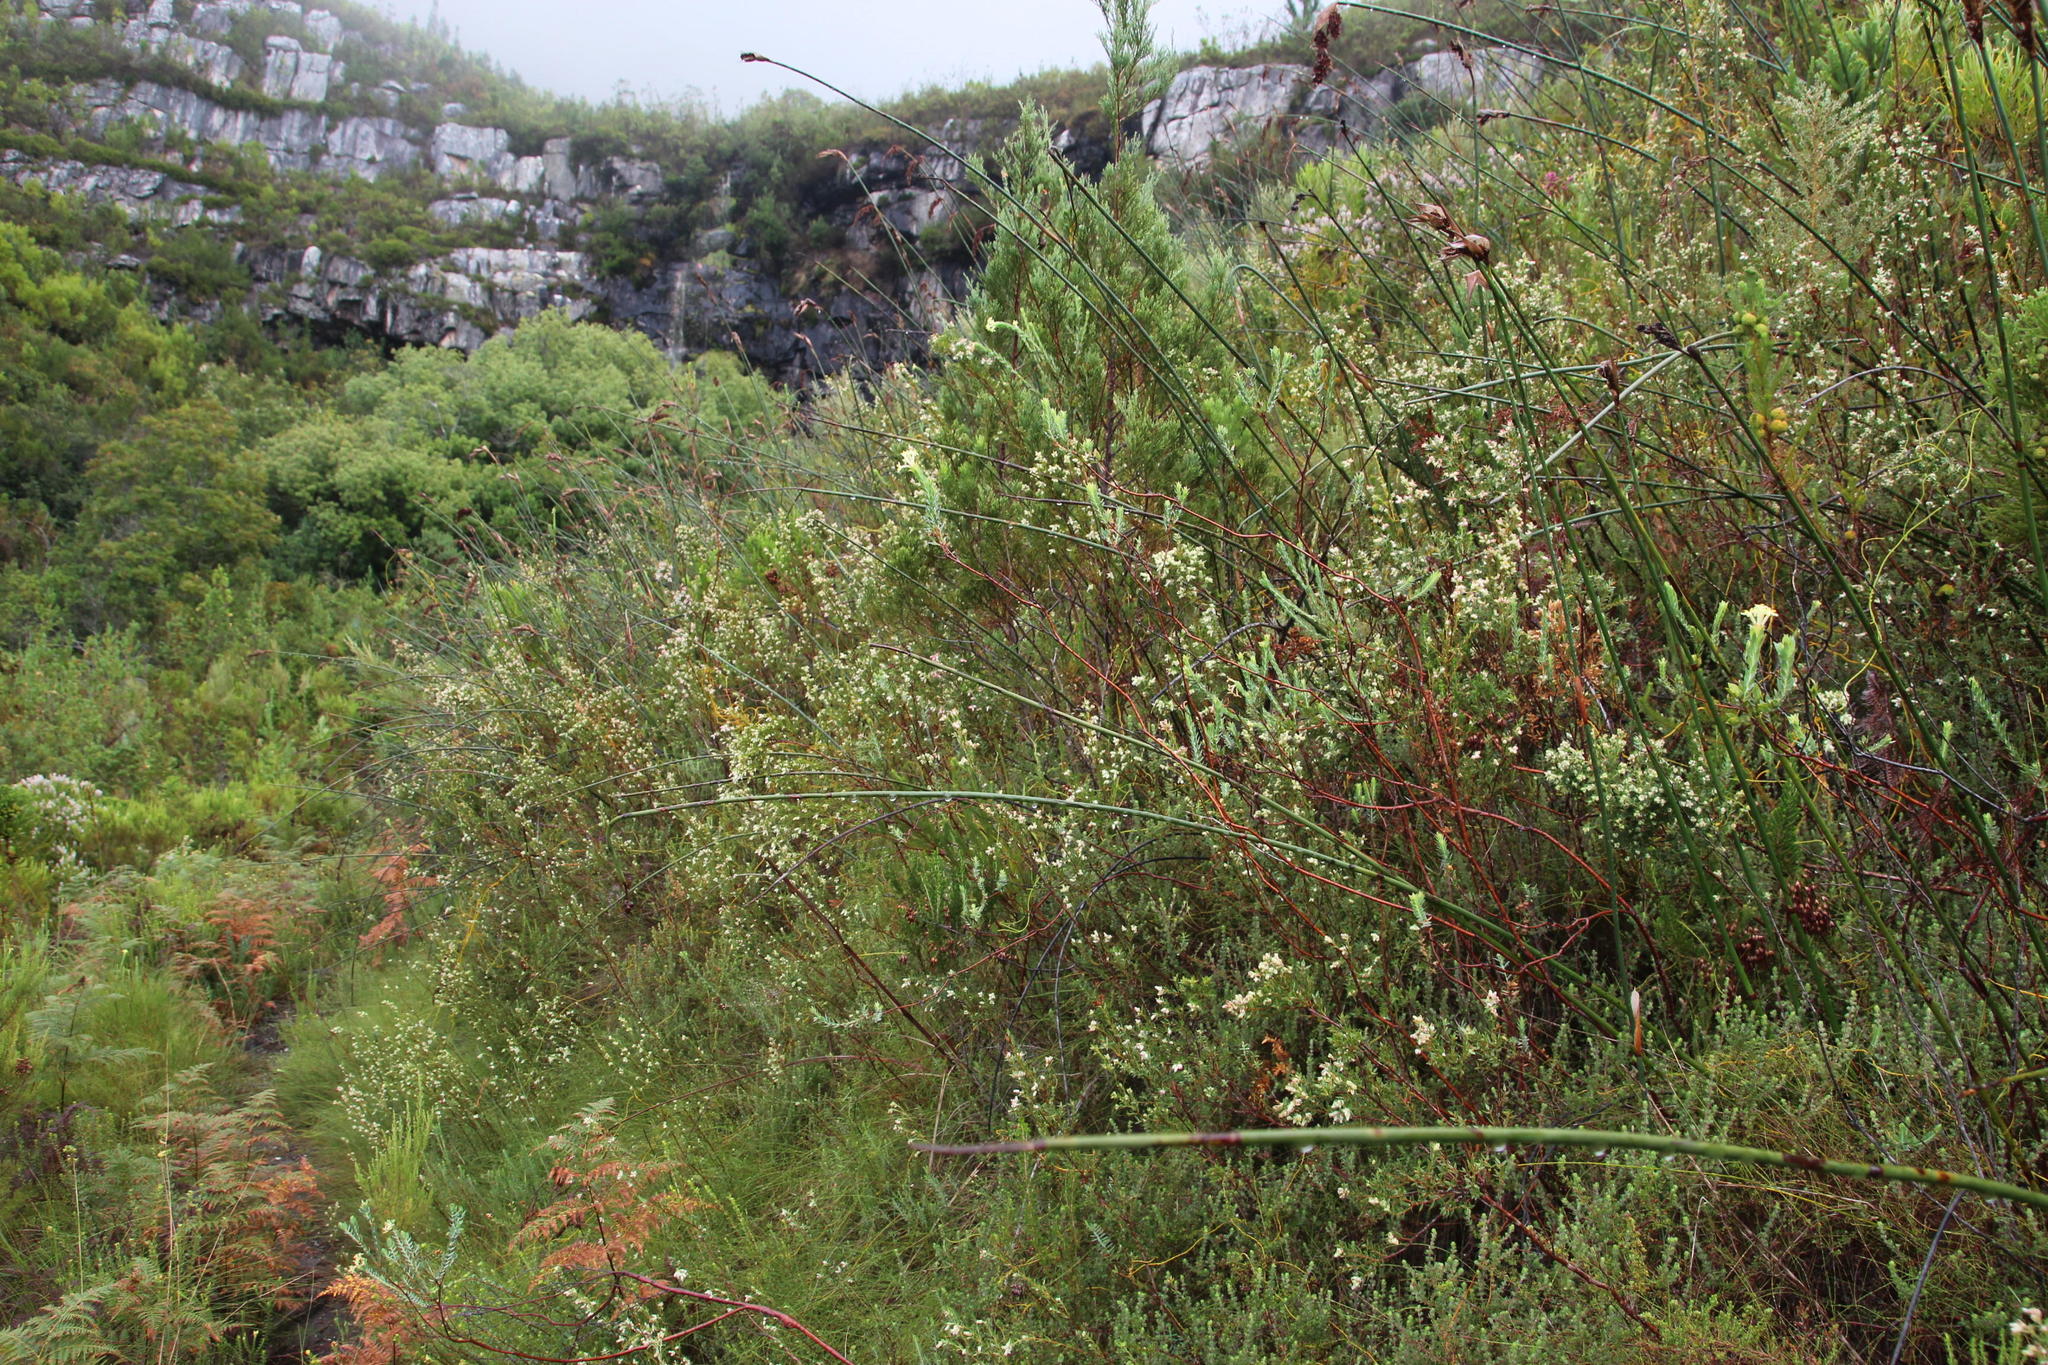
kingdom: Plantae
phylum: Tracheophyta
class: Magnoliopsida
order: Myrtales
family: Penaeaceae
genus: Stylapterus
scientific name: Stylapterus dubius
